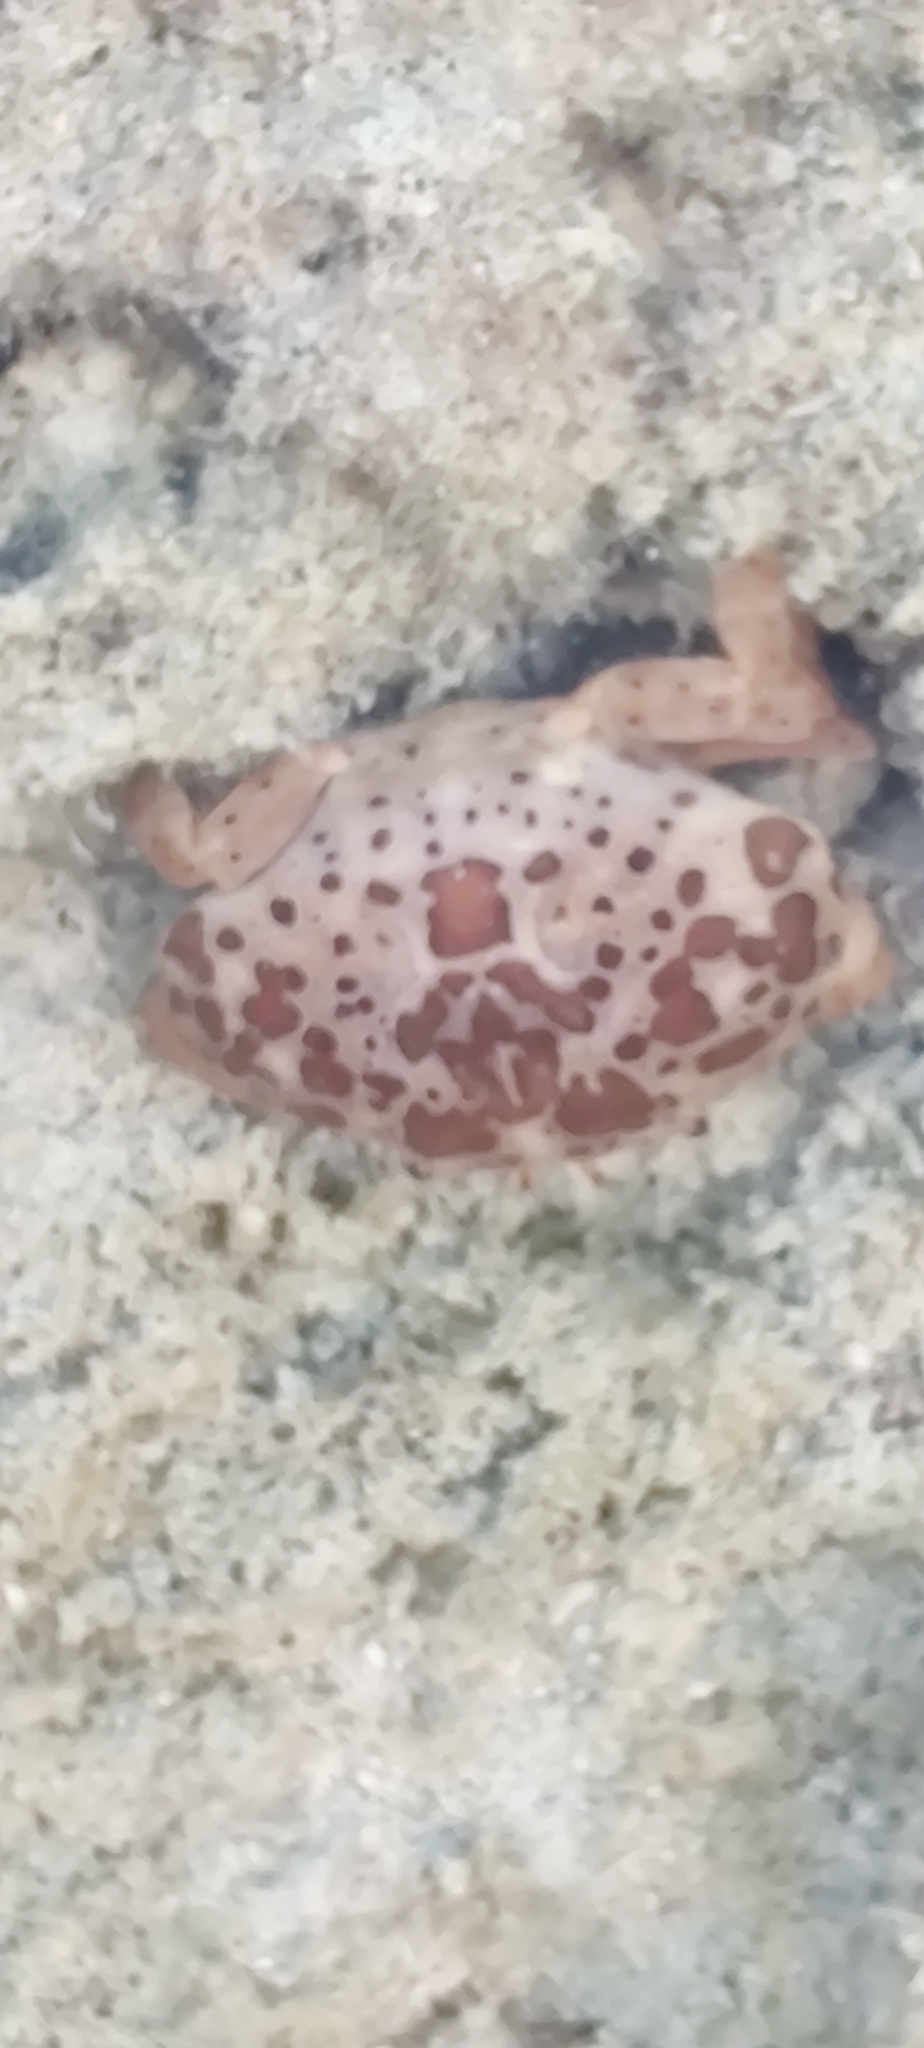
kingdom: Animalia
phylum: Arthropoda
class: Malacostraca
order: Decapoda
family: Xanthidae
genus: Atergatis
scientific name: Atergatis ocyroe
